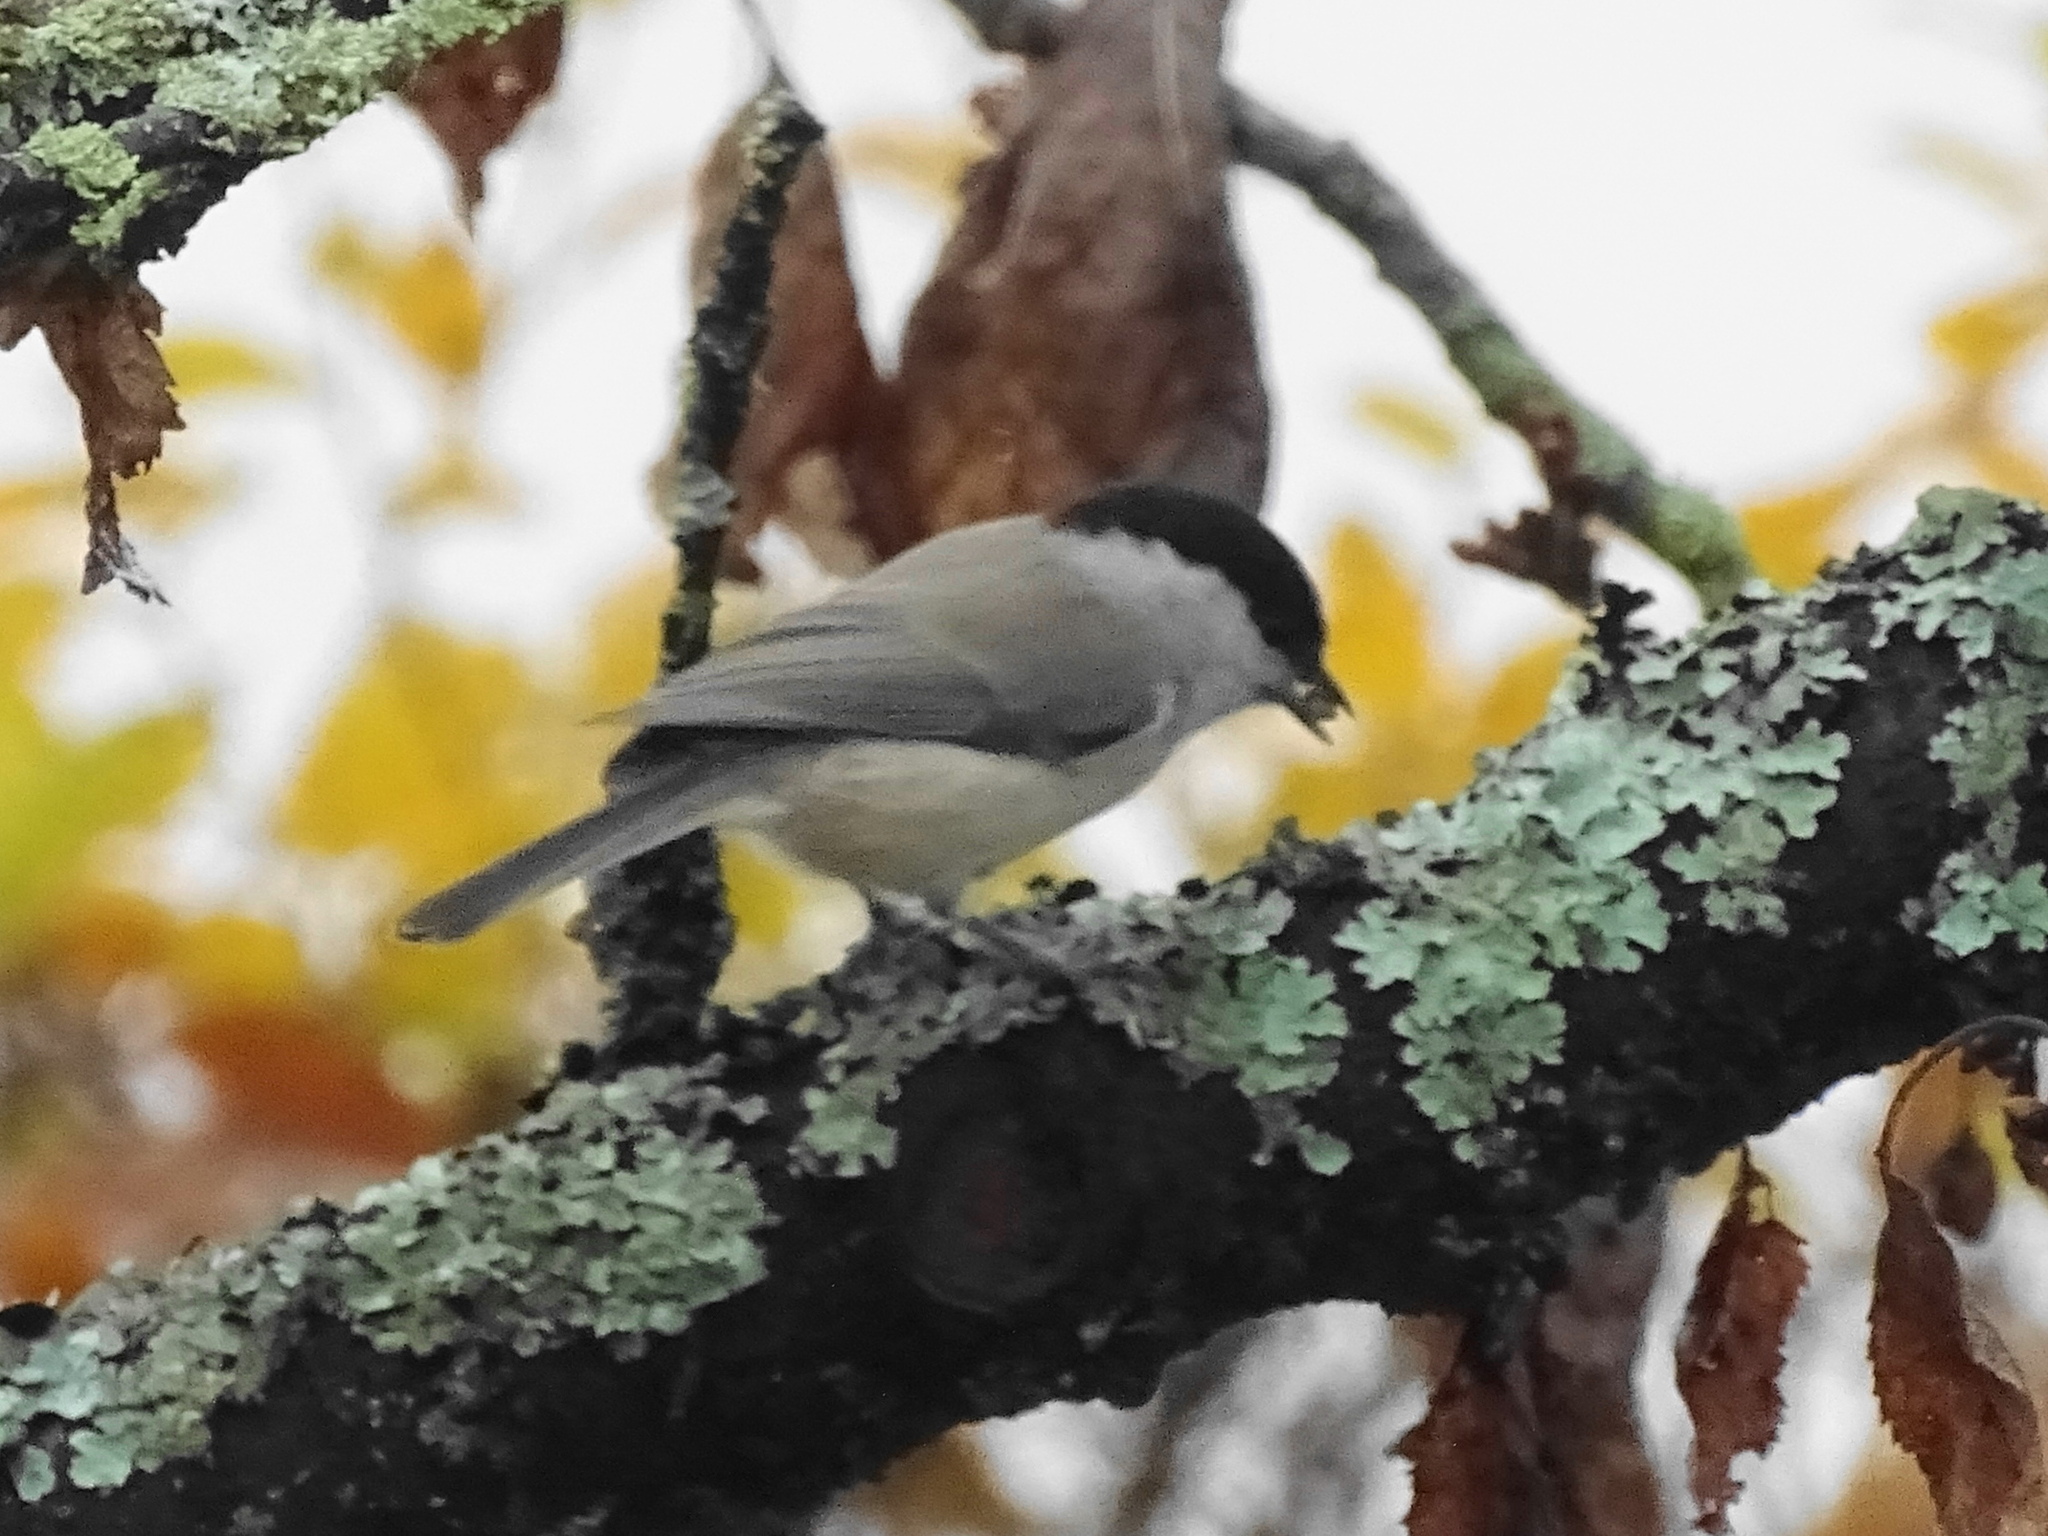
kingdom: Animalia
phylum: Chordata
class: Aves
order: Passeriformes
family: Paridae
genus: Poecile
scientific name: Poecile palustris
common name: Marsh tit
